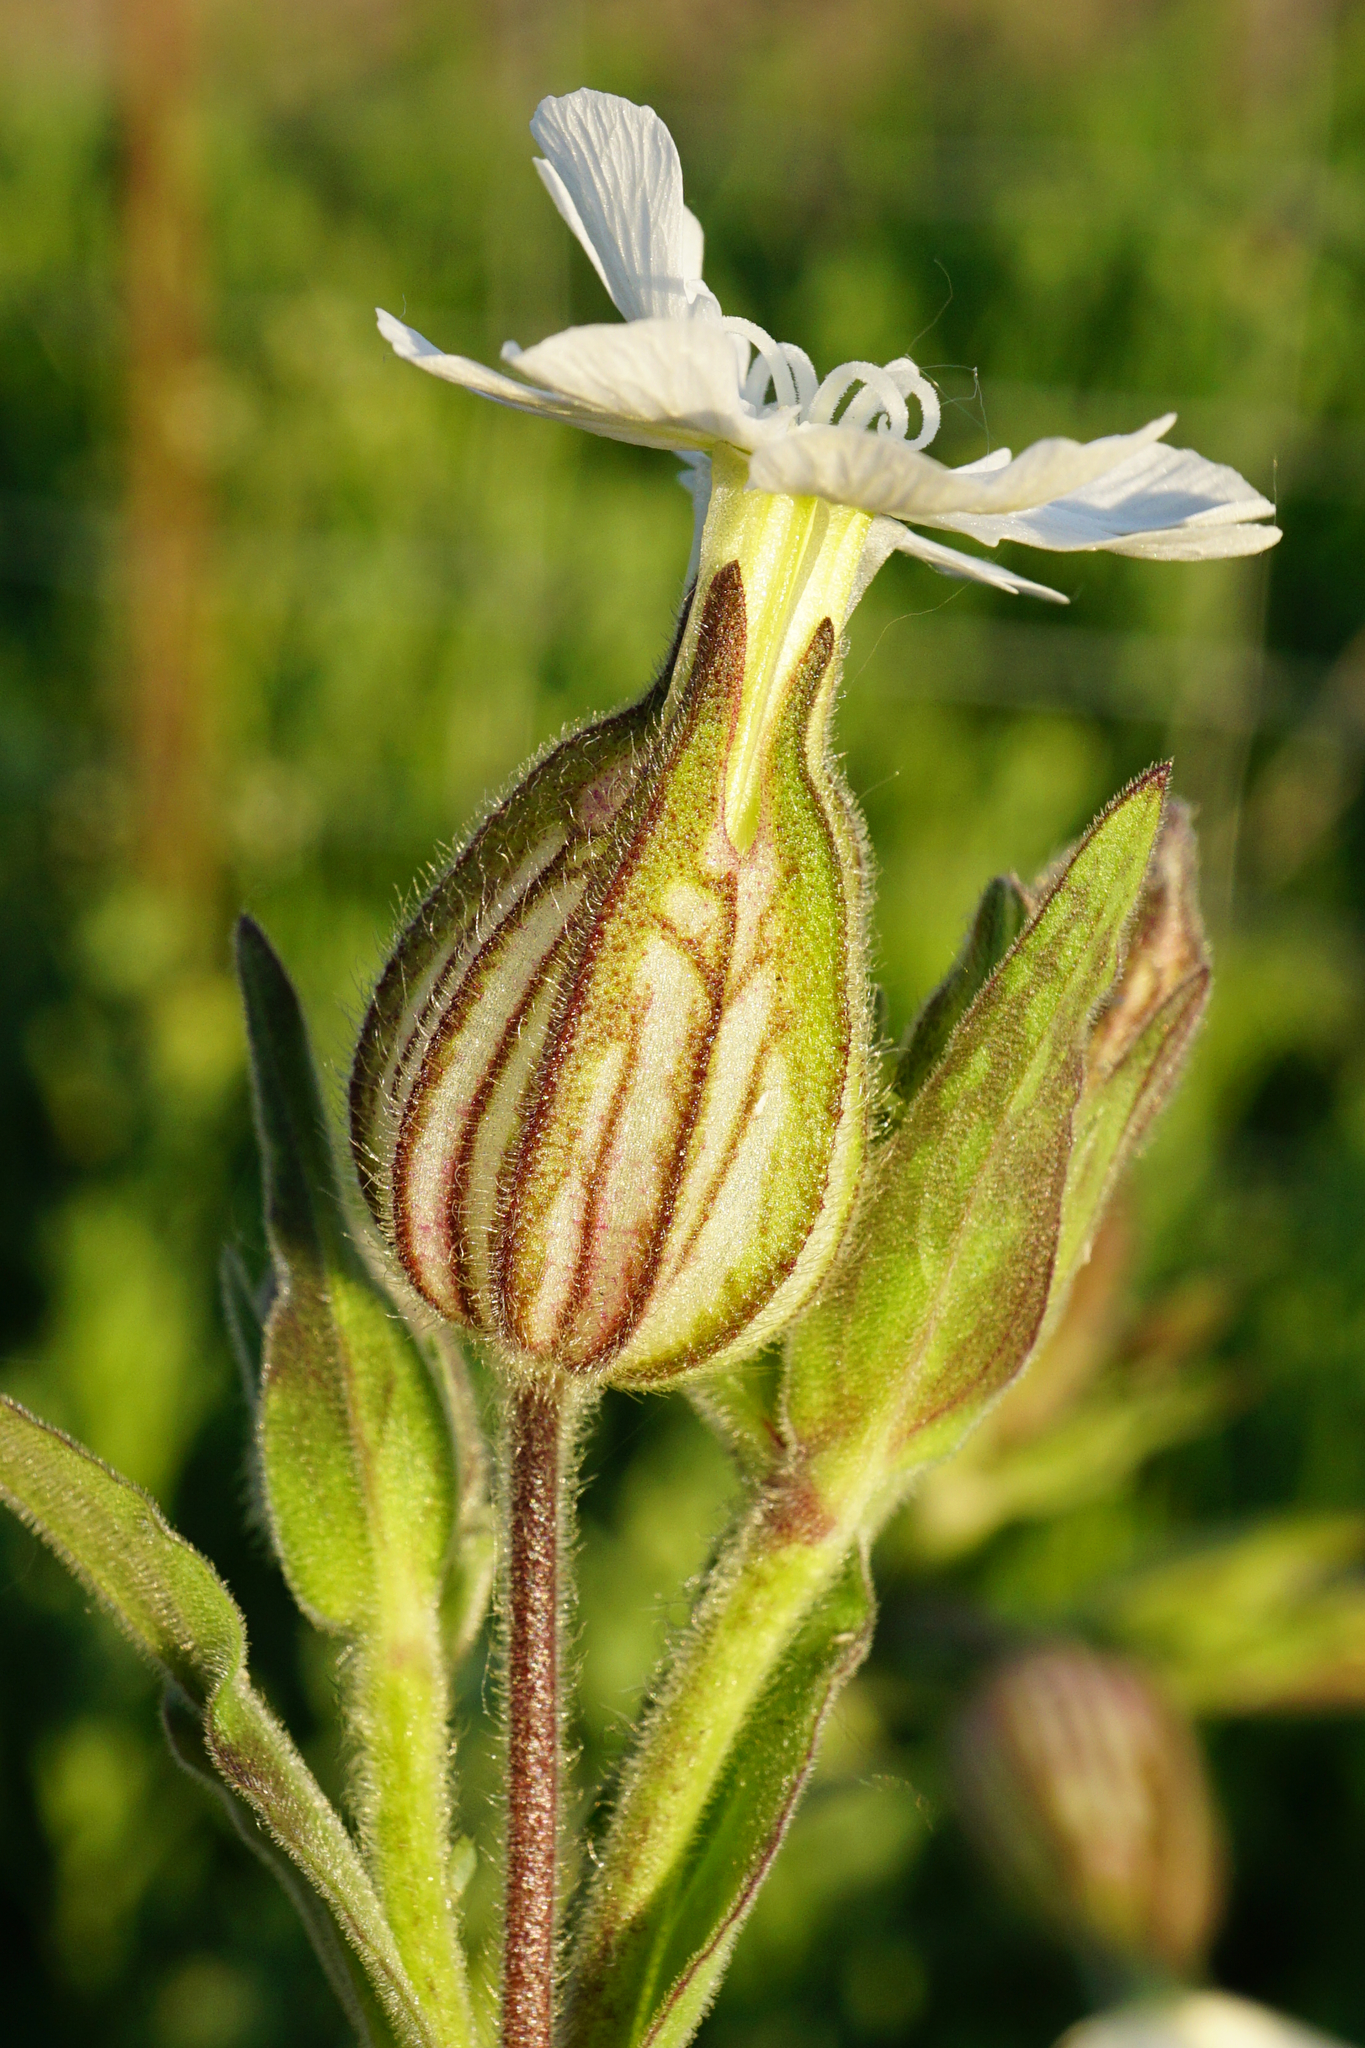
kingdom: Plantae
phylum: Tracheophyta
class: Magnoliopsida
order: Caryophyllales
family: Caryophyllaceae
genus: Silene
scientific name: Silene latifolia
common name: White campion
